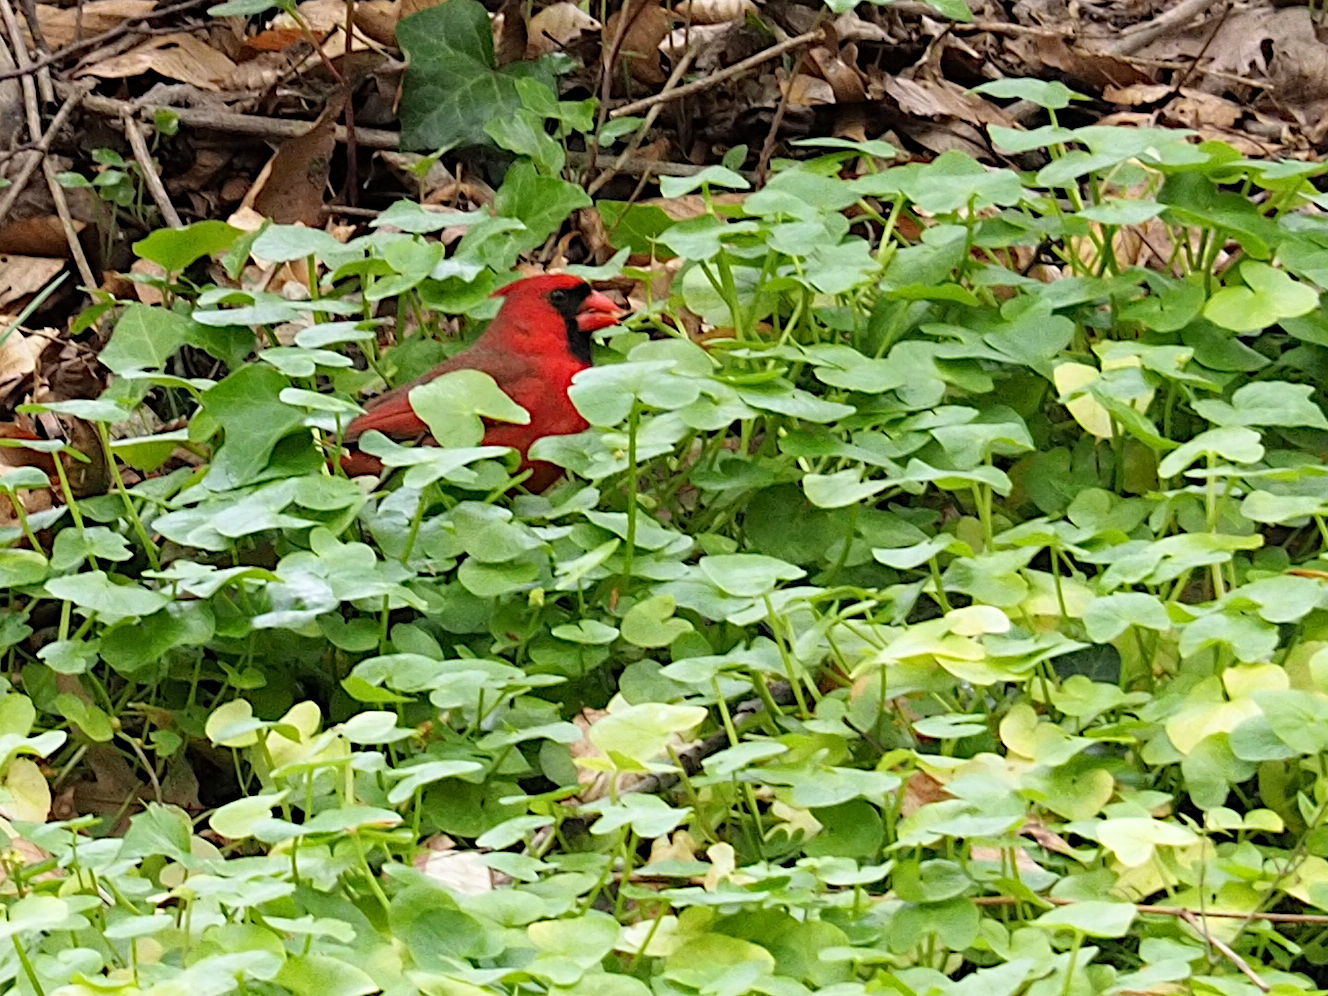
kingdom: Animalia
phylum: Chordata
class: Aves
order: Passeriformes
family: Cardinalidae
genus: Cardinalis
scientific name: Cardinalis cardinalis
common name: Northern cardinal
